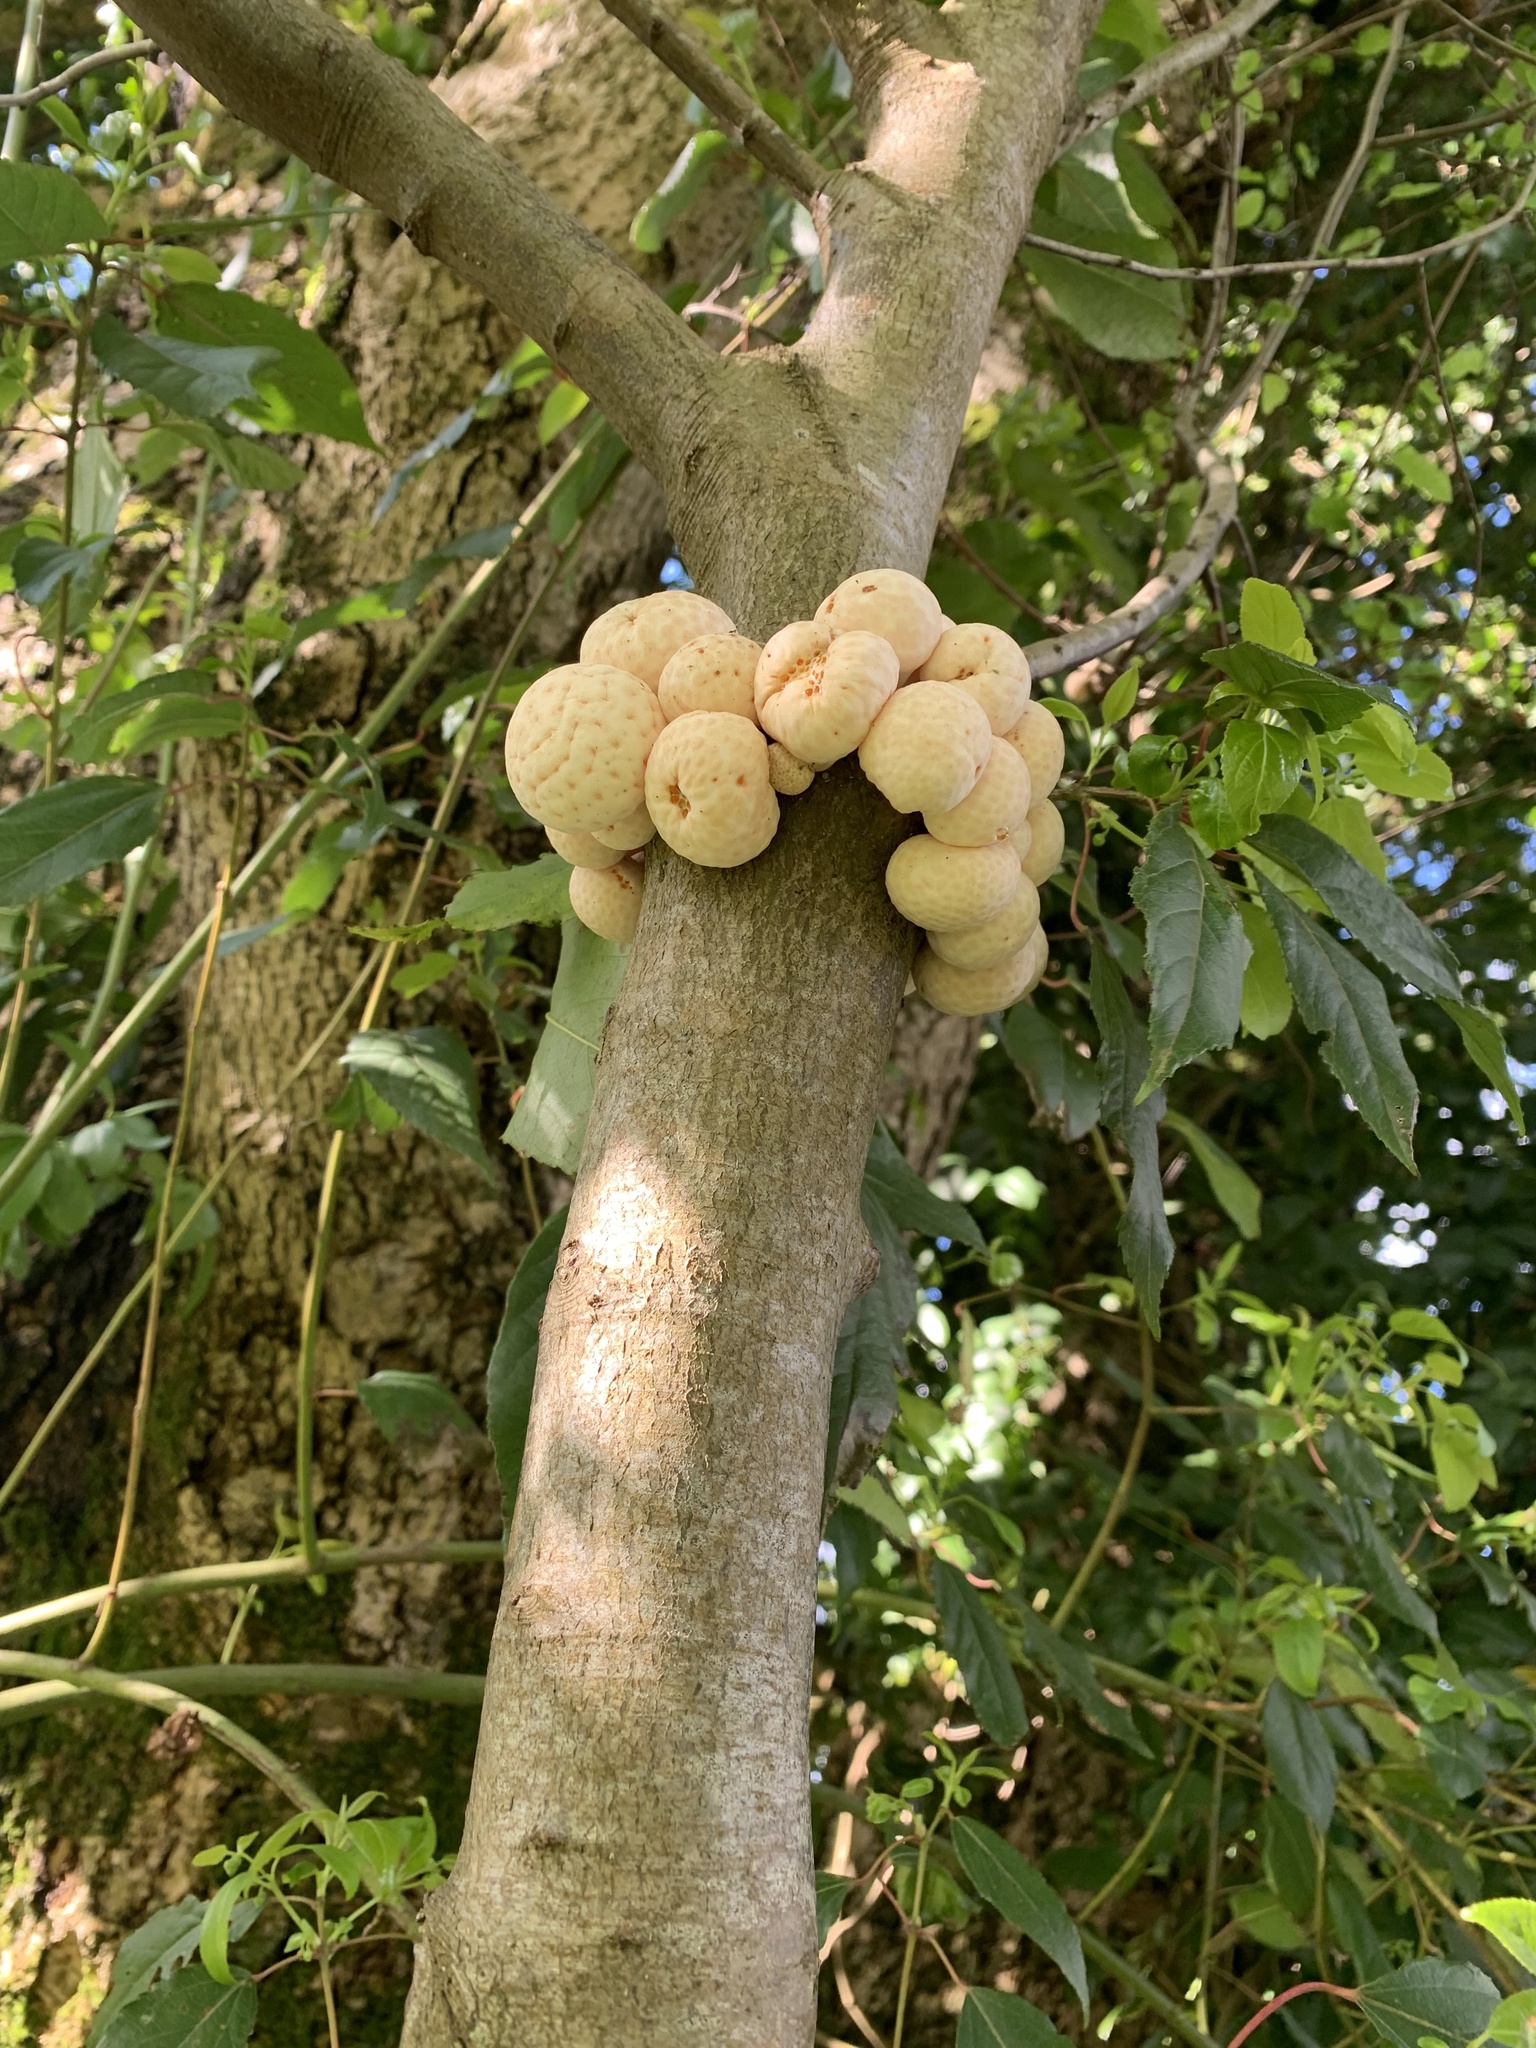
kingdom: Fungi
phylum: Ascomycota
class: Leotiomycetes
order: Cyttariales
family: Cyttariaceae
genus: Cyttaria
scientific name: Cyttaria espinosae
